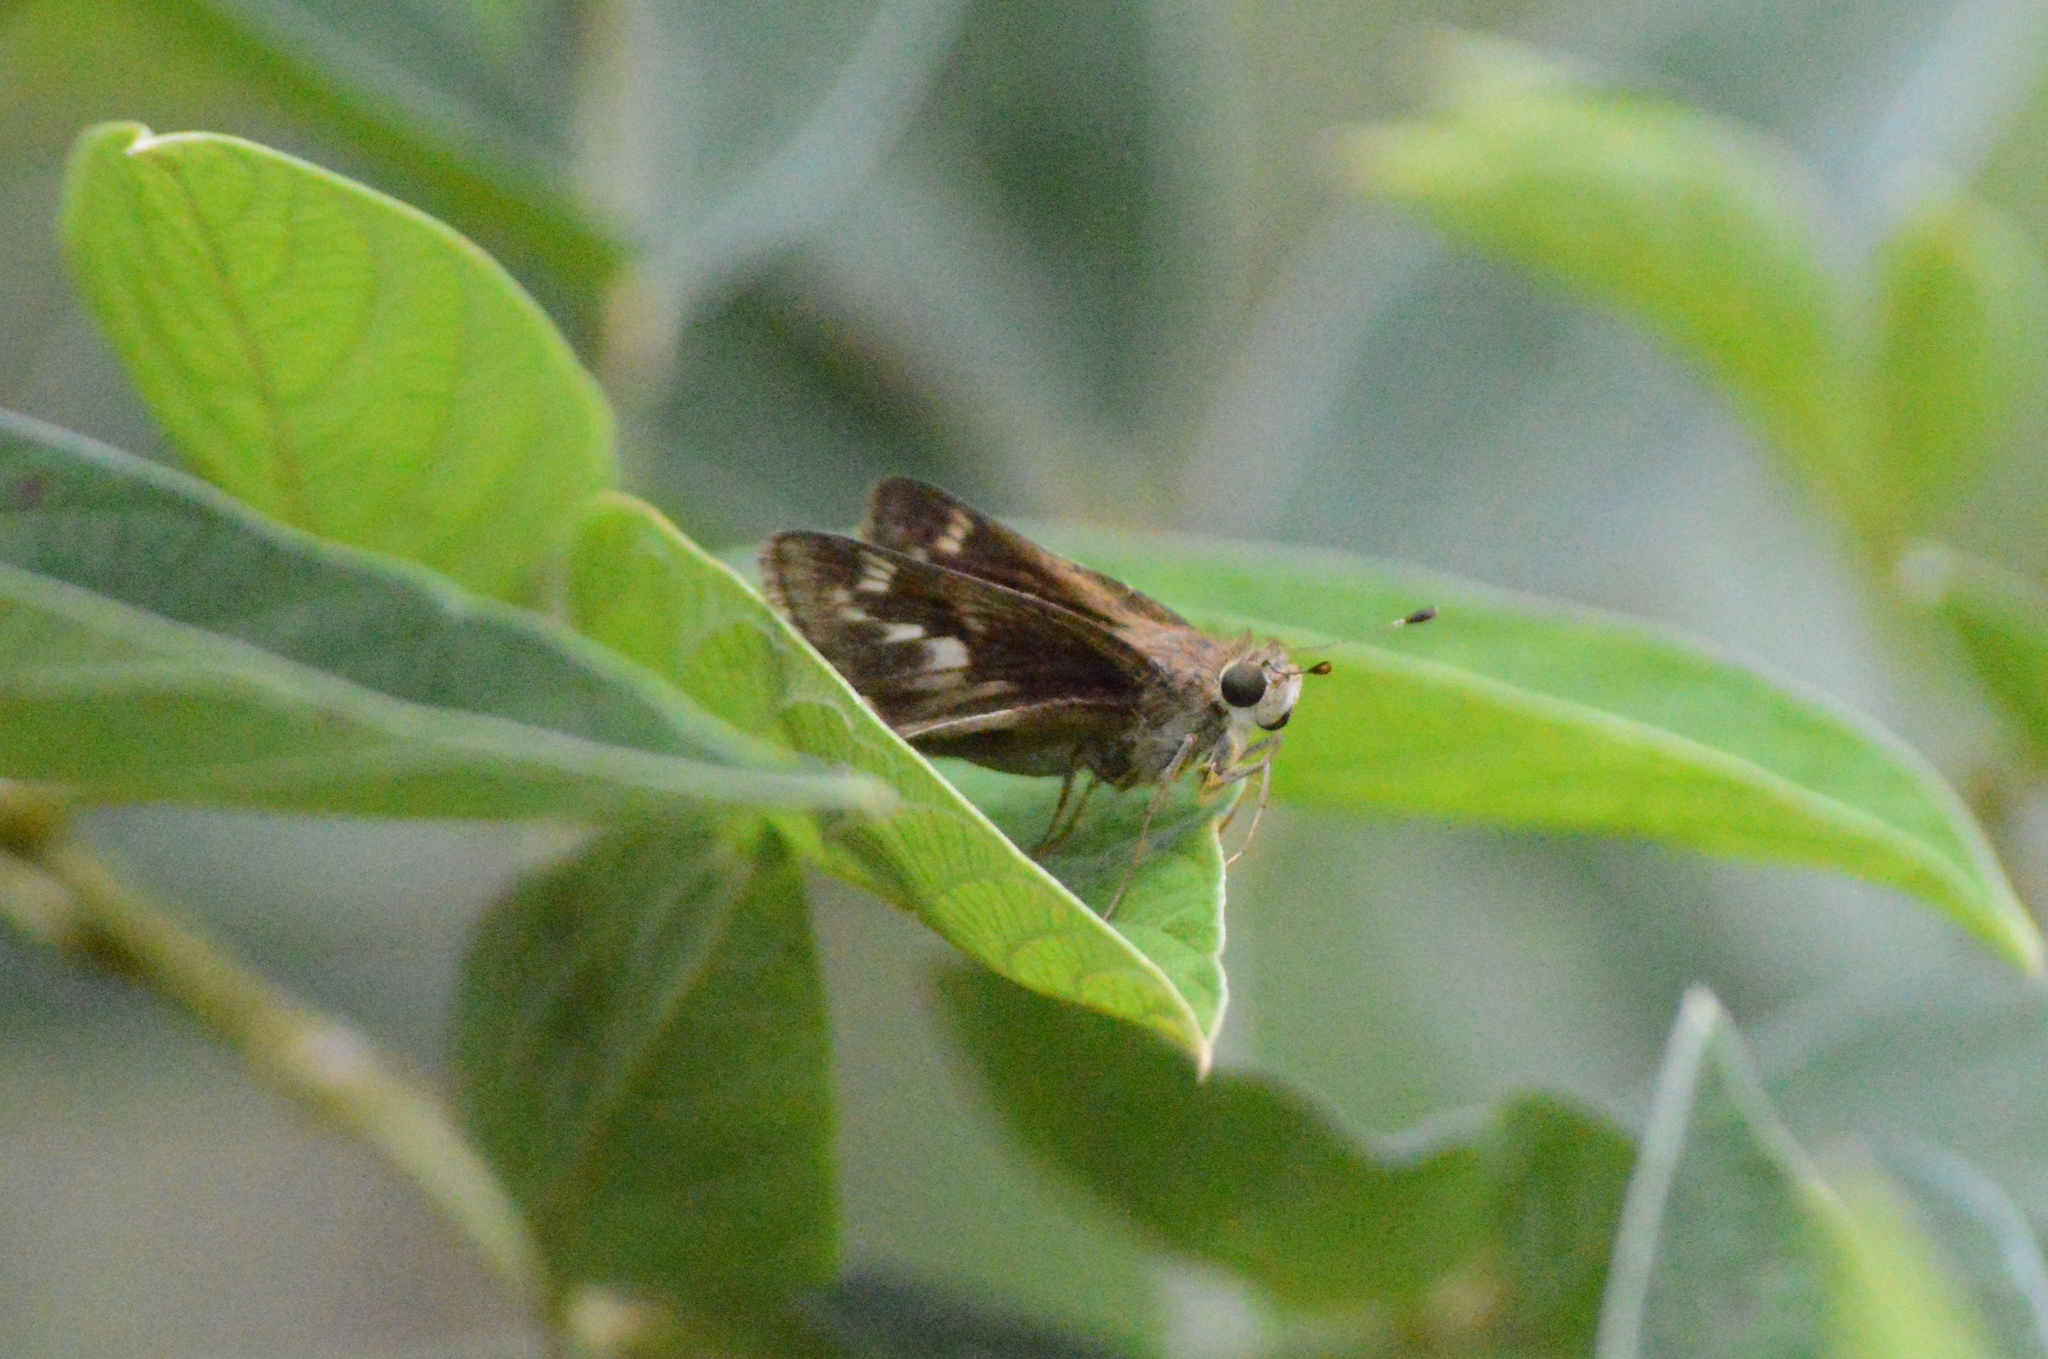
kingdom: Animalia
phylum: Arthropoda
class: Insecta
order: Lepidoptera
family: Hesperiidae
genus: Pompeius
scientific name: Pompeius pompeius
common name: Pompeius skipper
